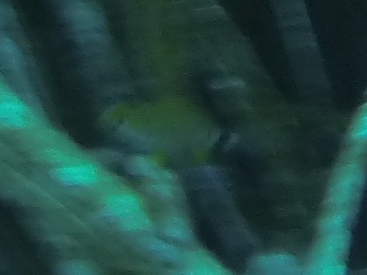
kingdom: Animalia
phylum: Chordata
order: Perciformes
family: Sparidae
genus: Diplodus
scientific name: Diplodus annularis
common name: Annular seabream
